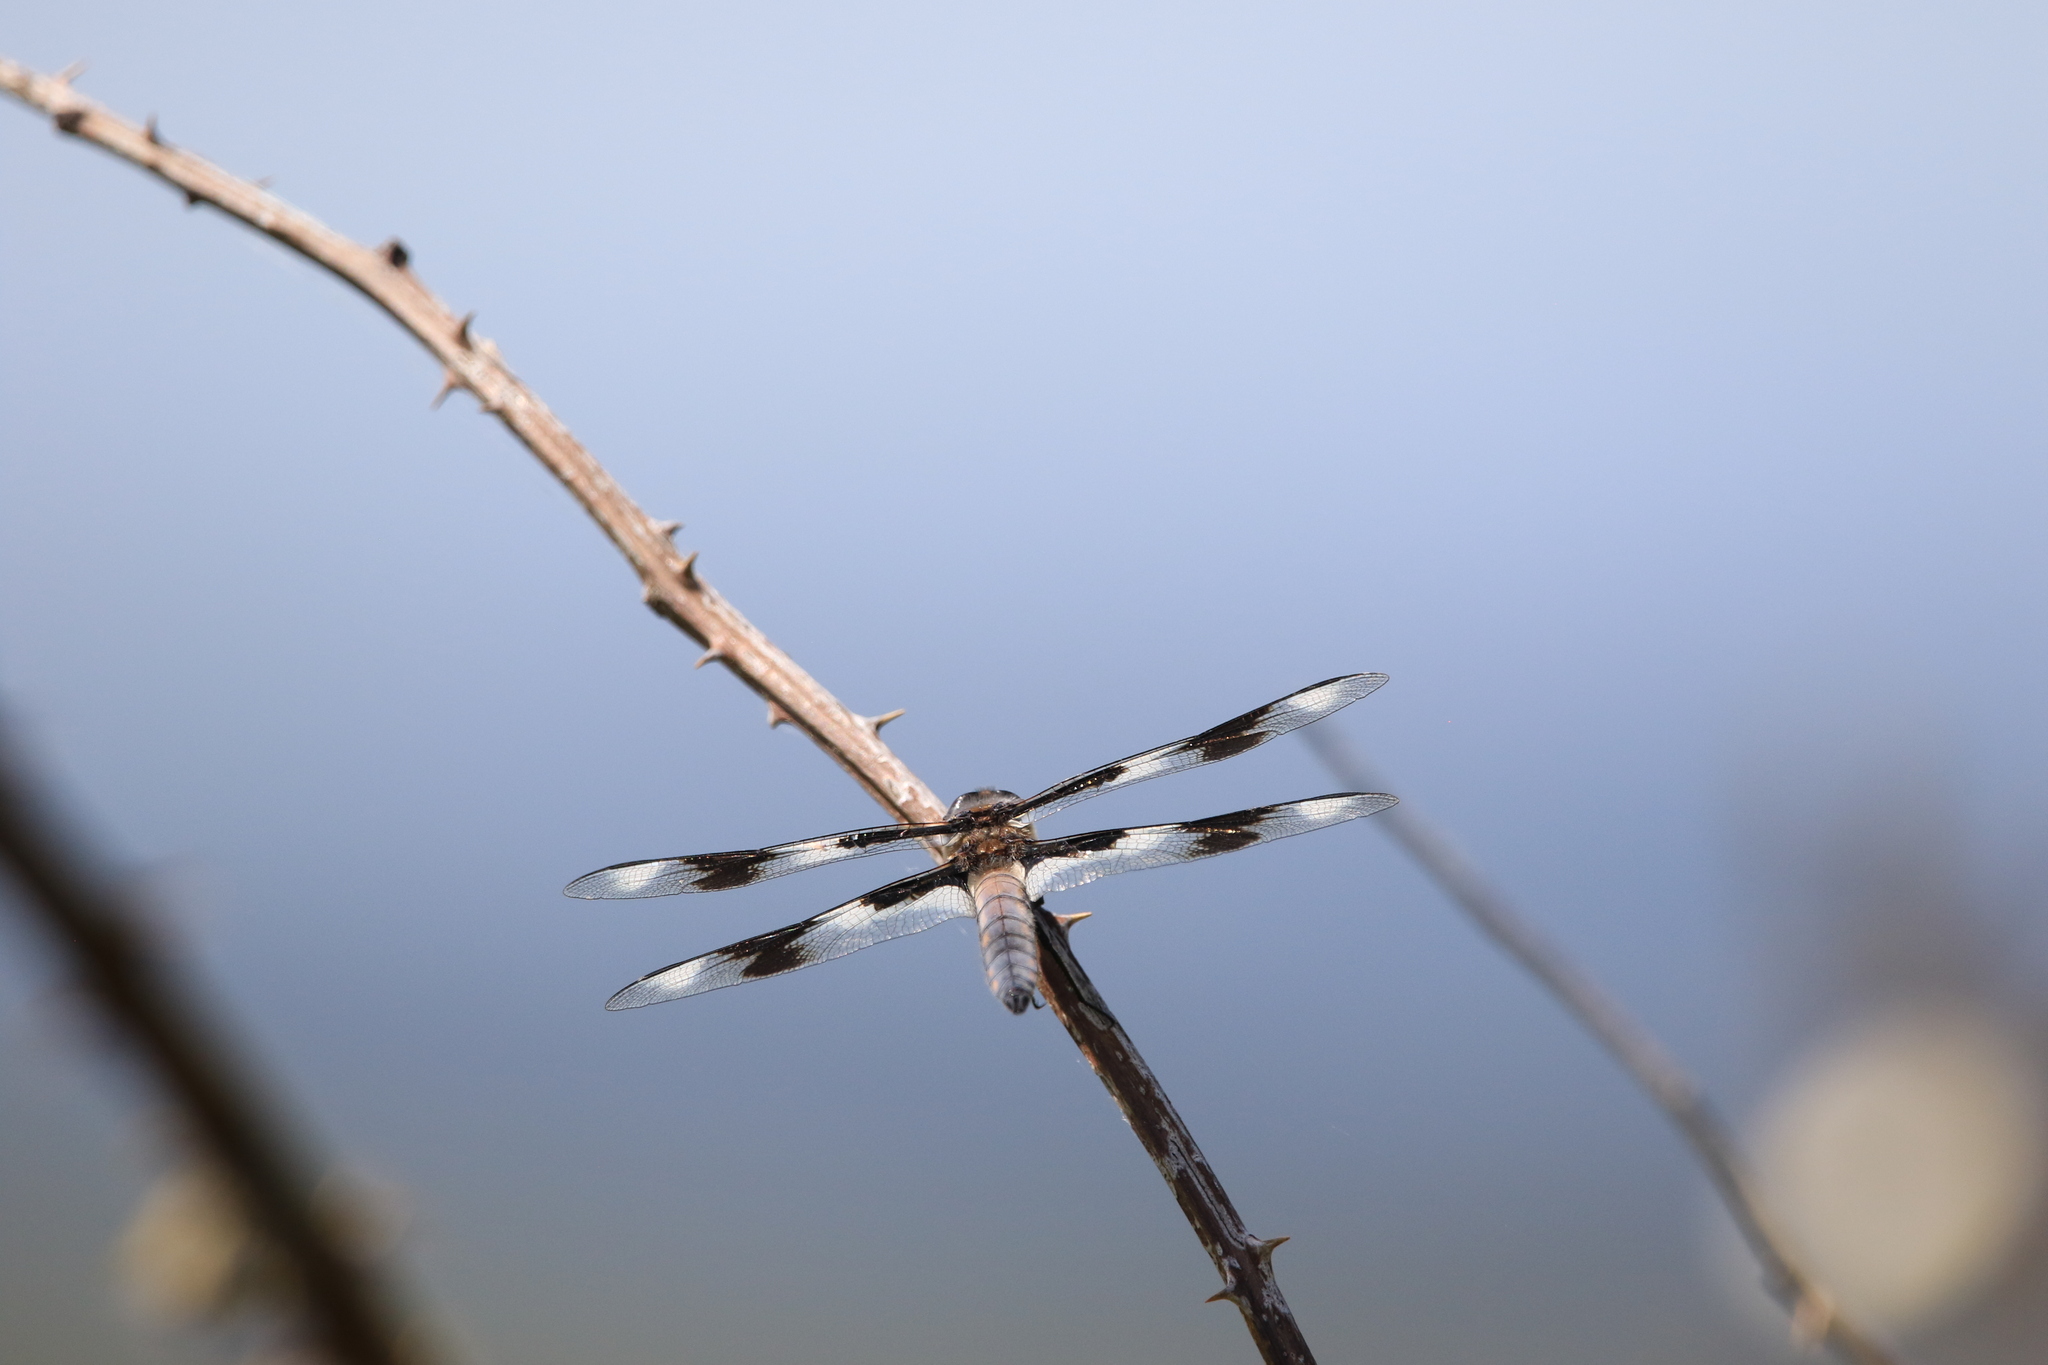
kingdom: Animalia
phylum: Arthropoda
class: Insecta
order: Odonata
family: Libellulidae
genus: Libellula
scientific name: Libellula forensis
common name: Eight-spotted skimmer
